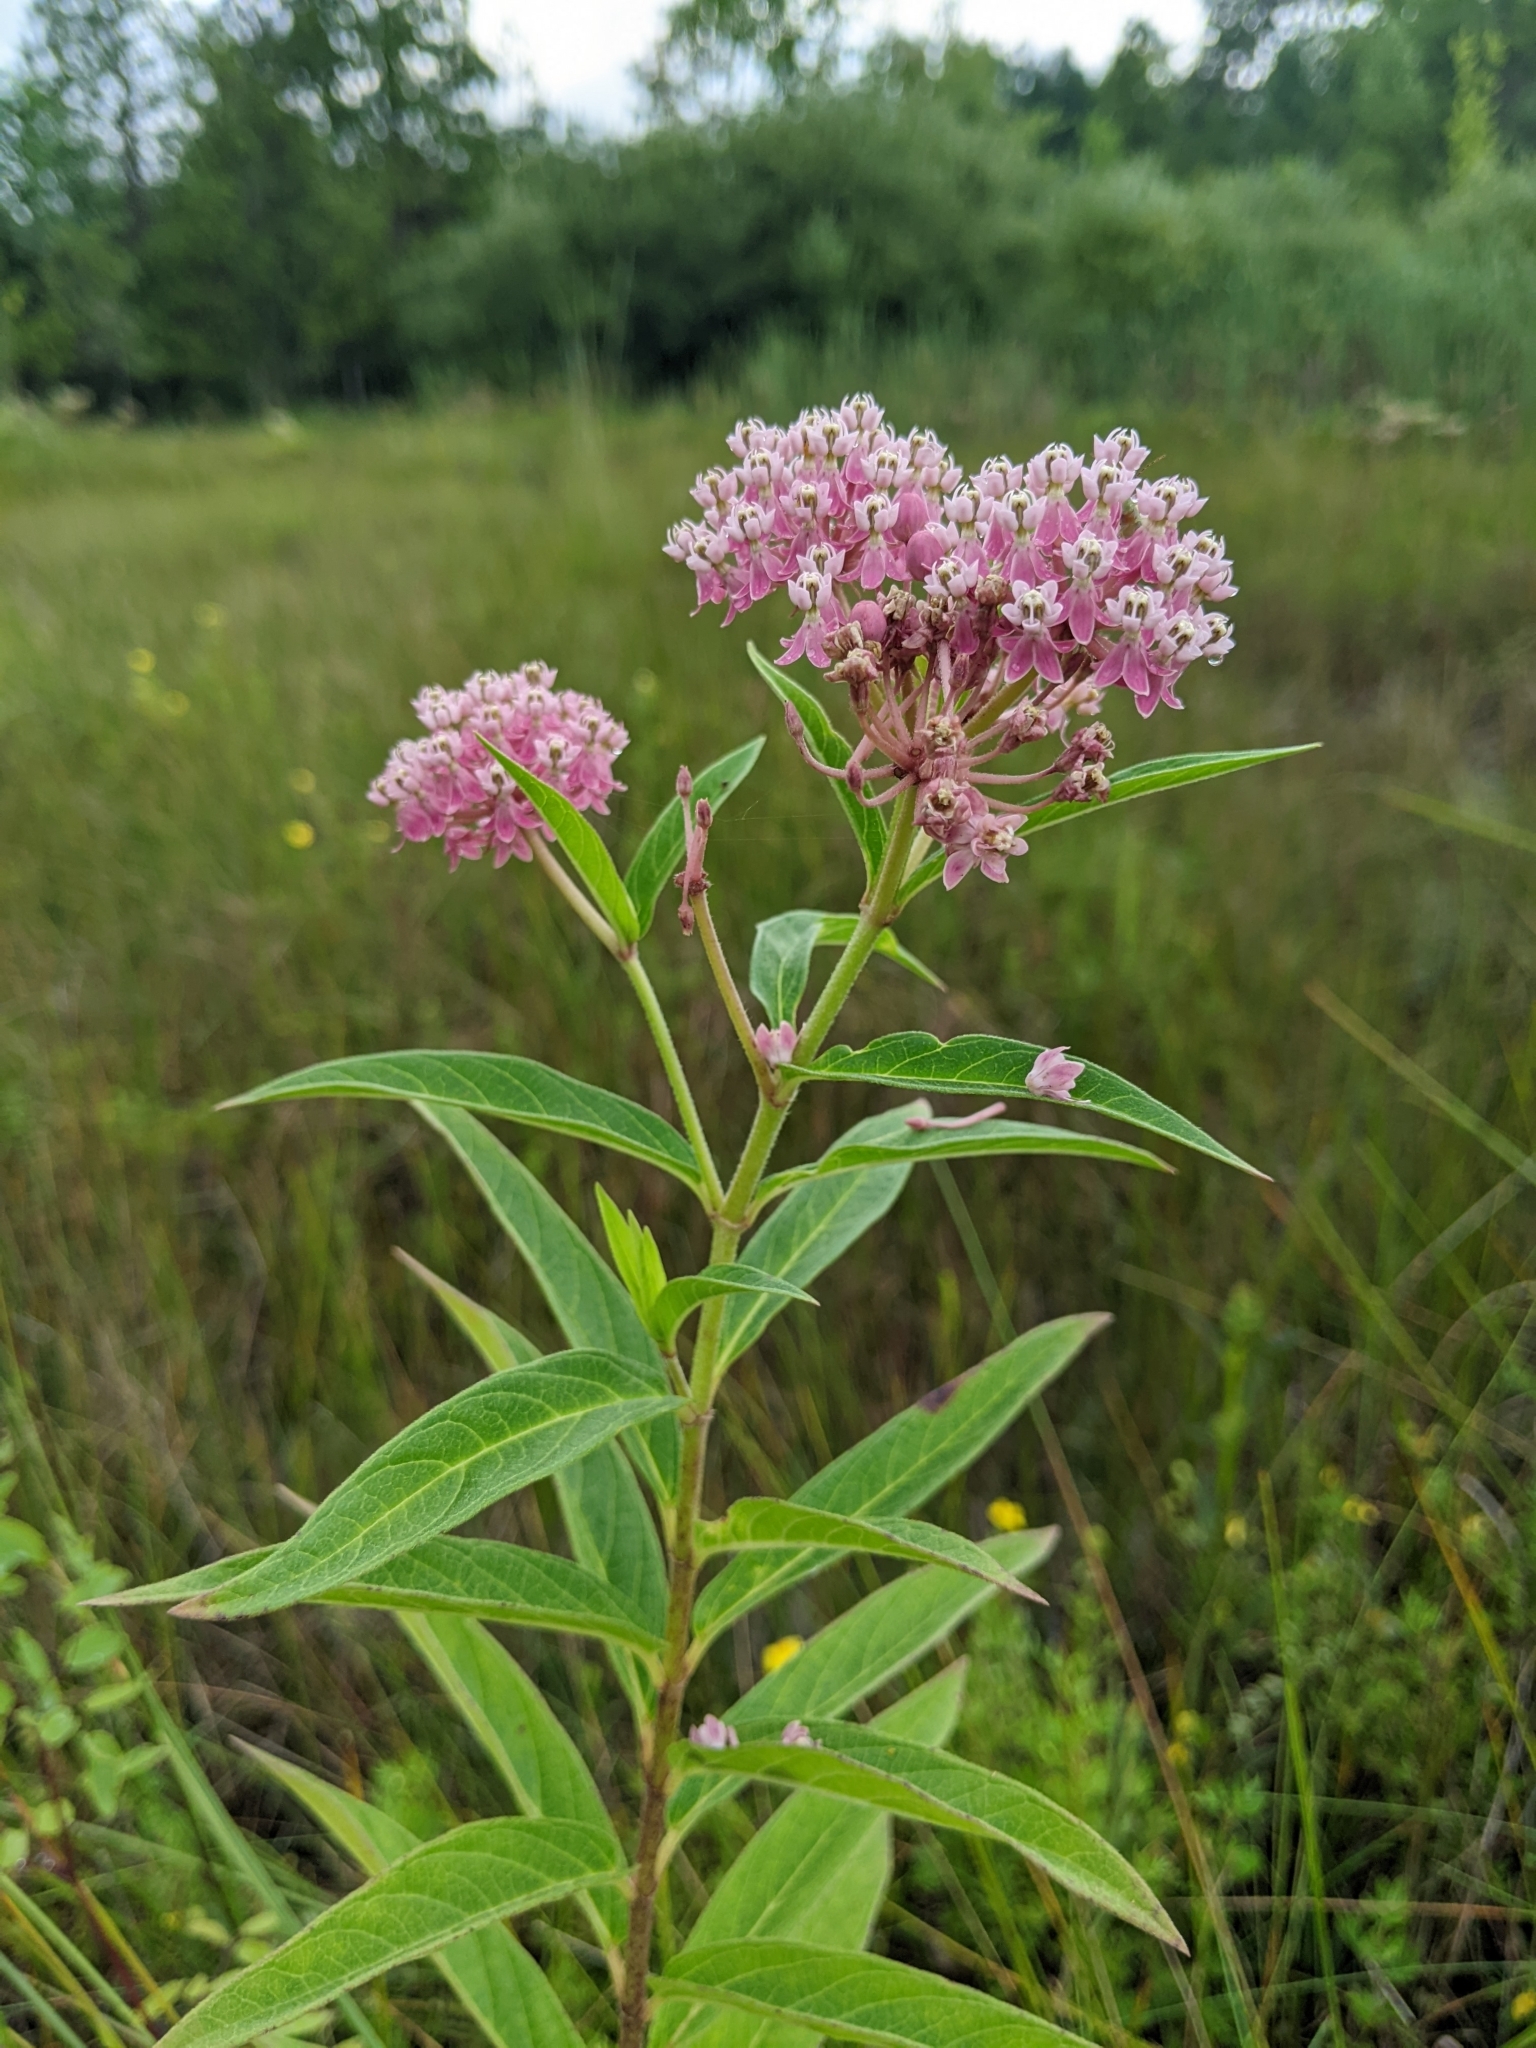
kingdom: Plantae
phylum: Tracheophyta
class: Magnoliopsida
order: Gentianales
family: Apocynaceae
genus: Asclepias
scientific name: Asclepias incarnata
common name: Swamp milkweed
